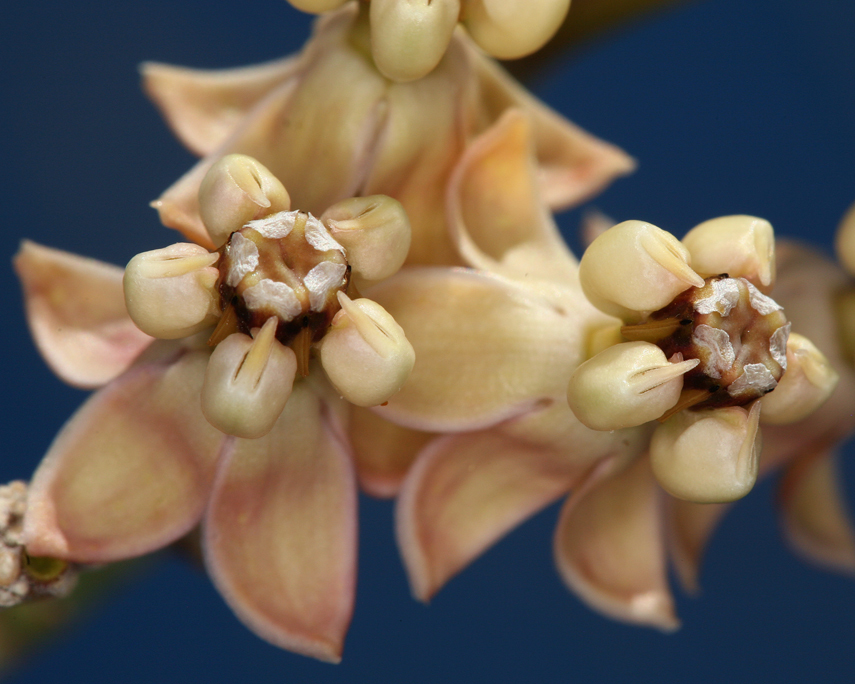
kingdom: Plantae
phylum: Tracheophyta
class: Magnoliopsida
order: Gentianales
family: Apocynaceae
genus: Asclepias
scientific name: Asclepias albicans
